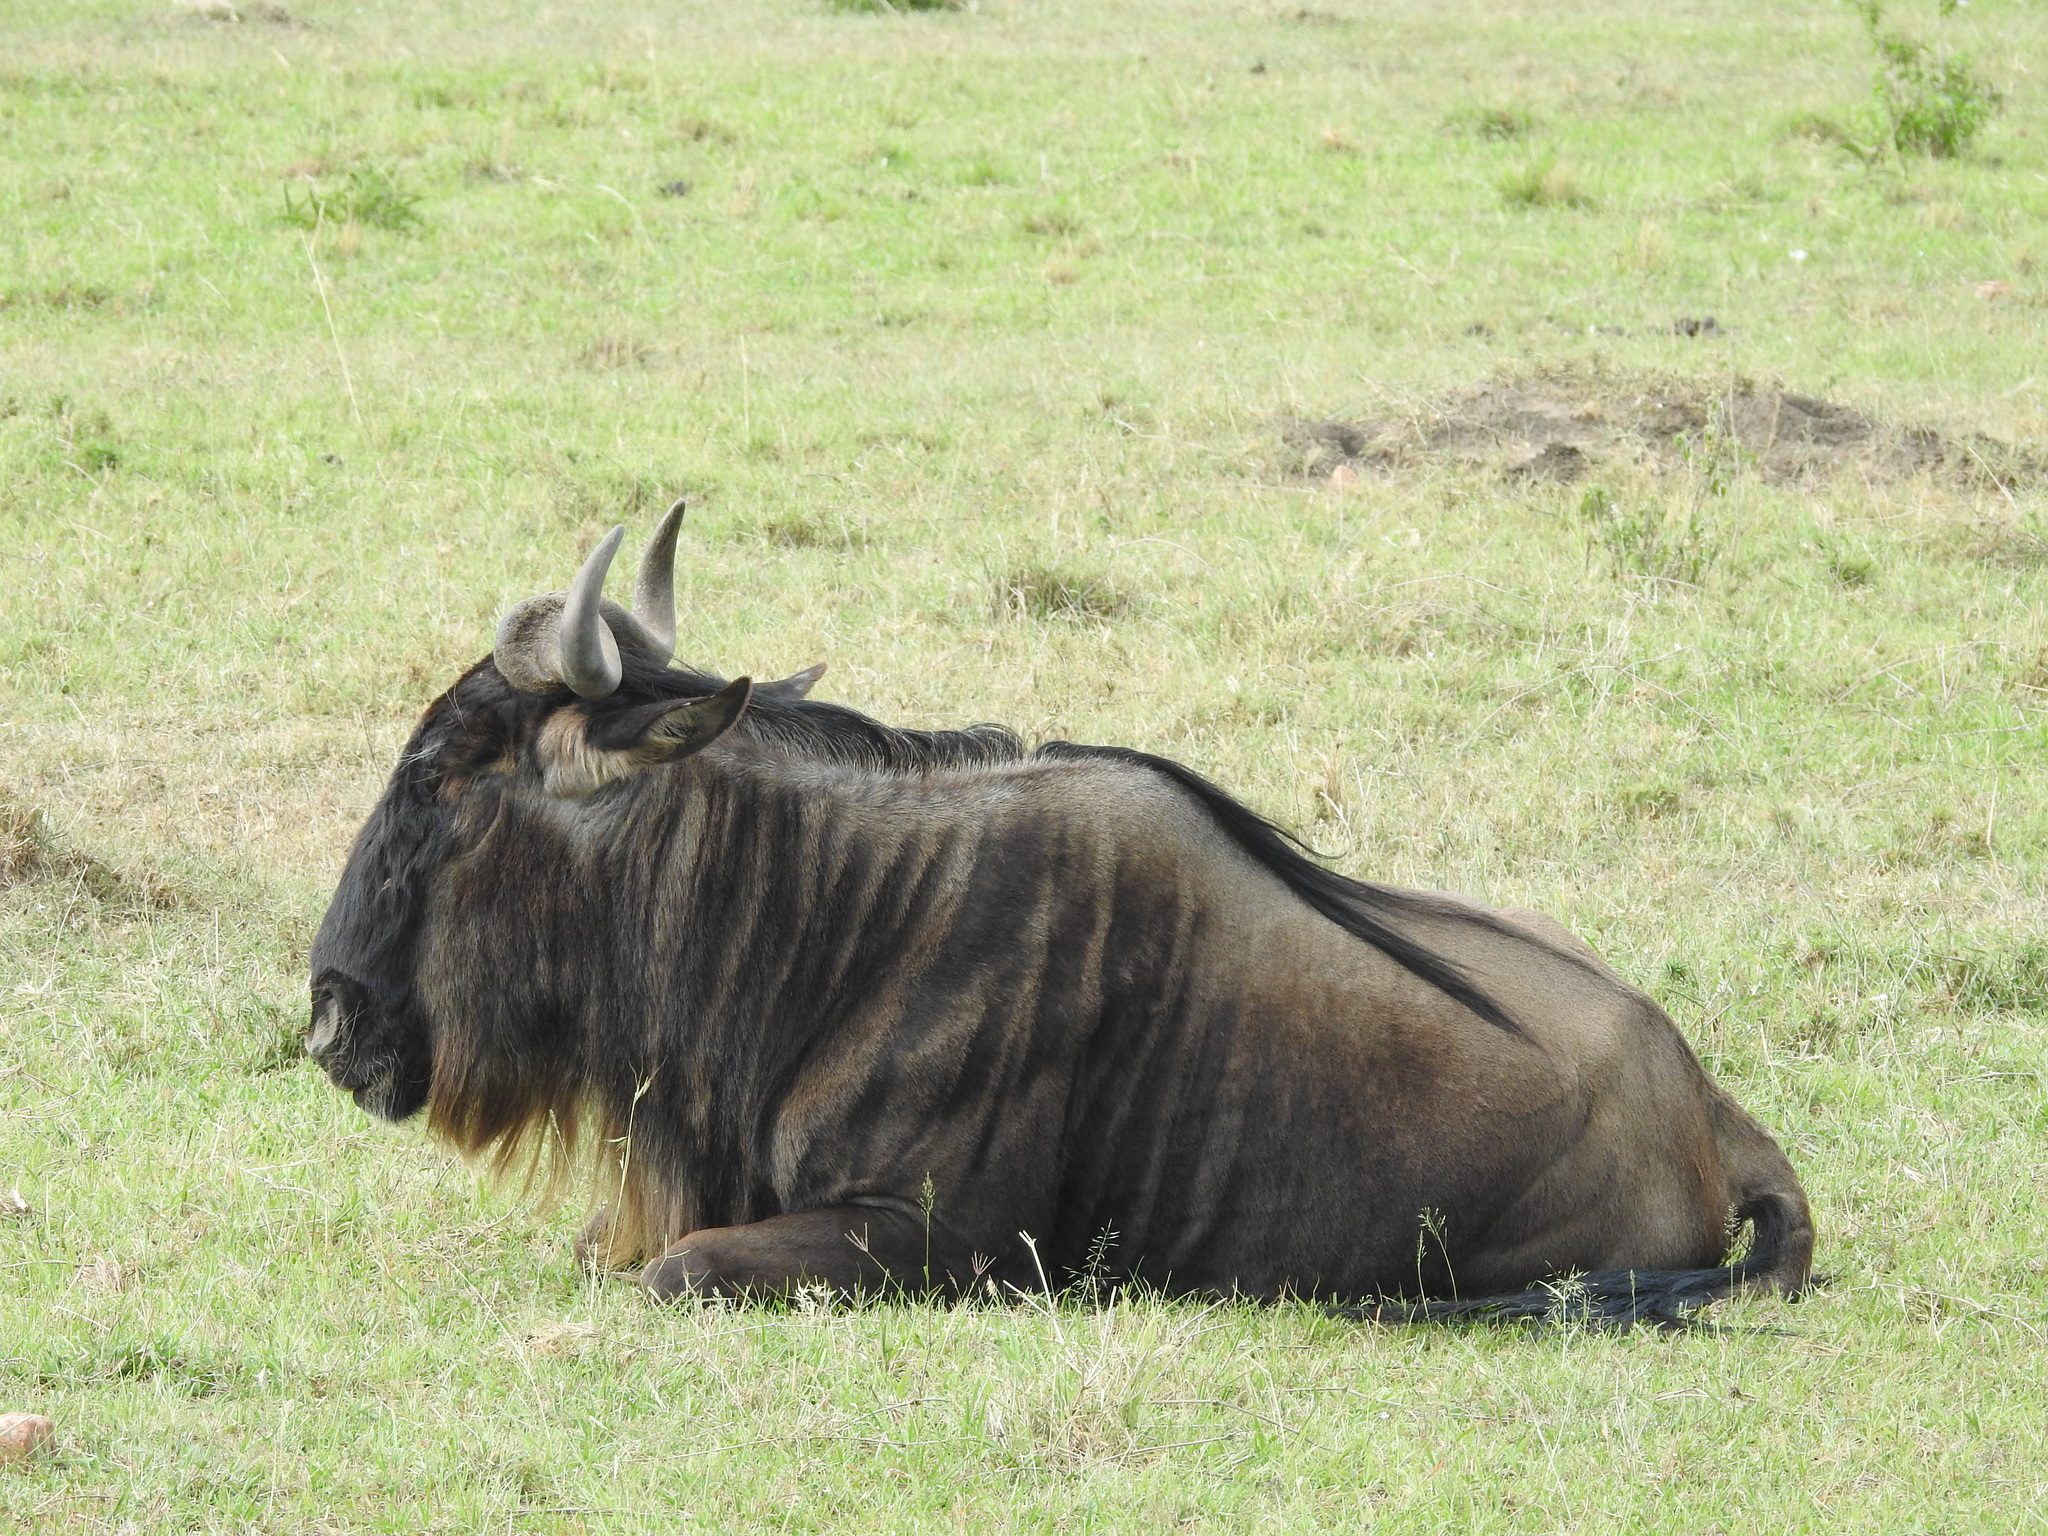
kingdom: Animalia
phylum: Chordata
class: Mammalia
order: Artiodactyla
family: Bovidae
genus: Connochaetes
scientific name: Connochaetes taurinus
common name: Blue wildebeest
